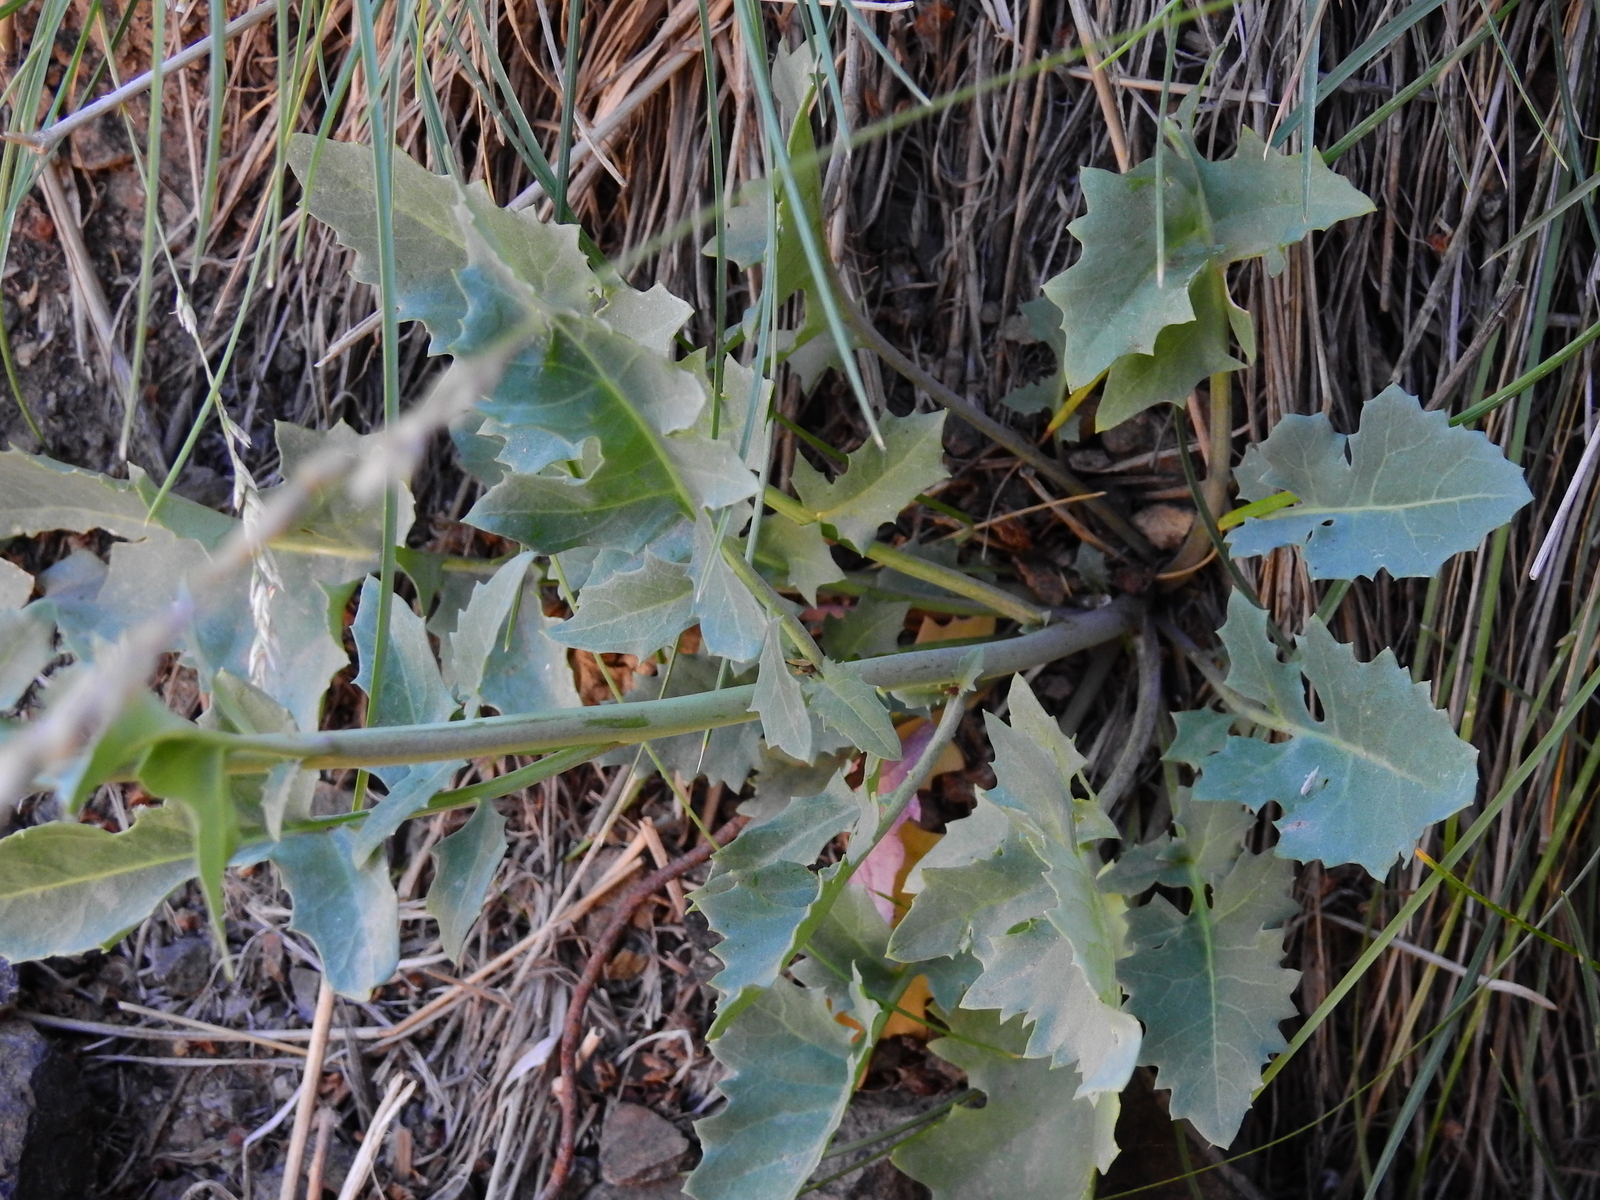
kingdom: Plantae
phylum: Tracheophyta
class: Magnoliopsida
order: Brassicales
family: Brassicaceae
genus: Diplotaxis
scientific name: Diplotaxis erucoides
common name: White rocket
